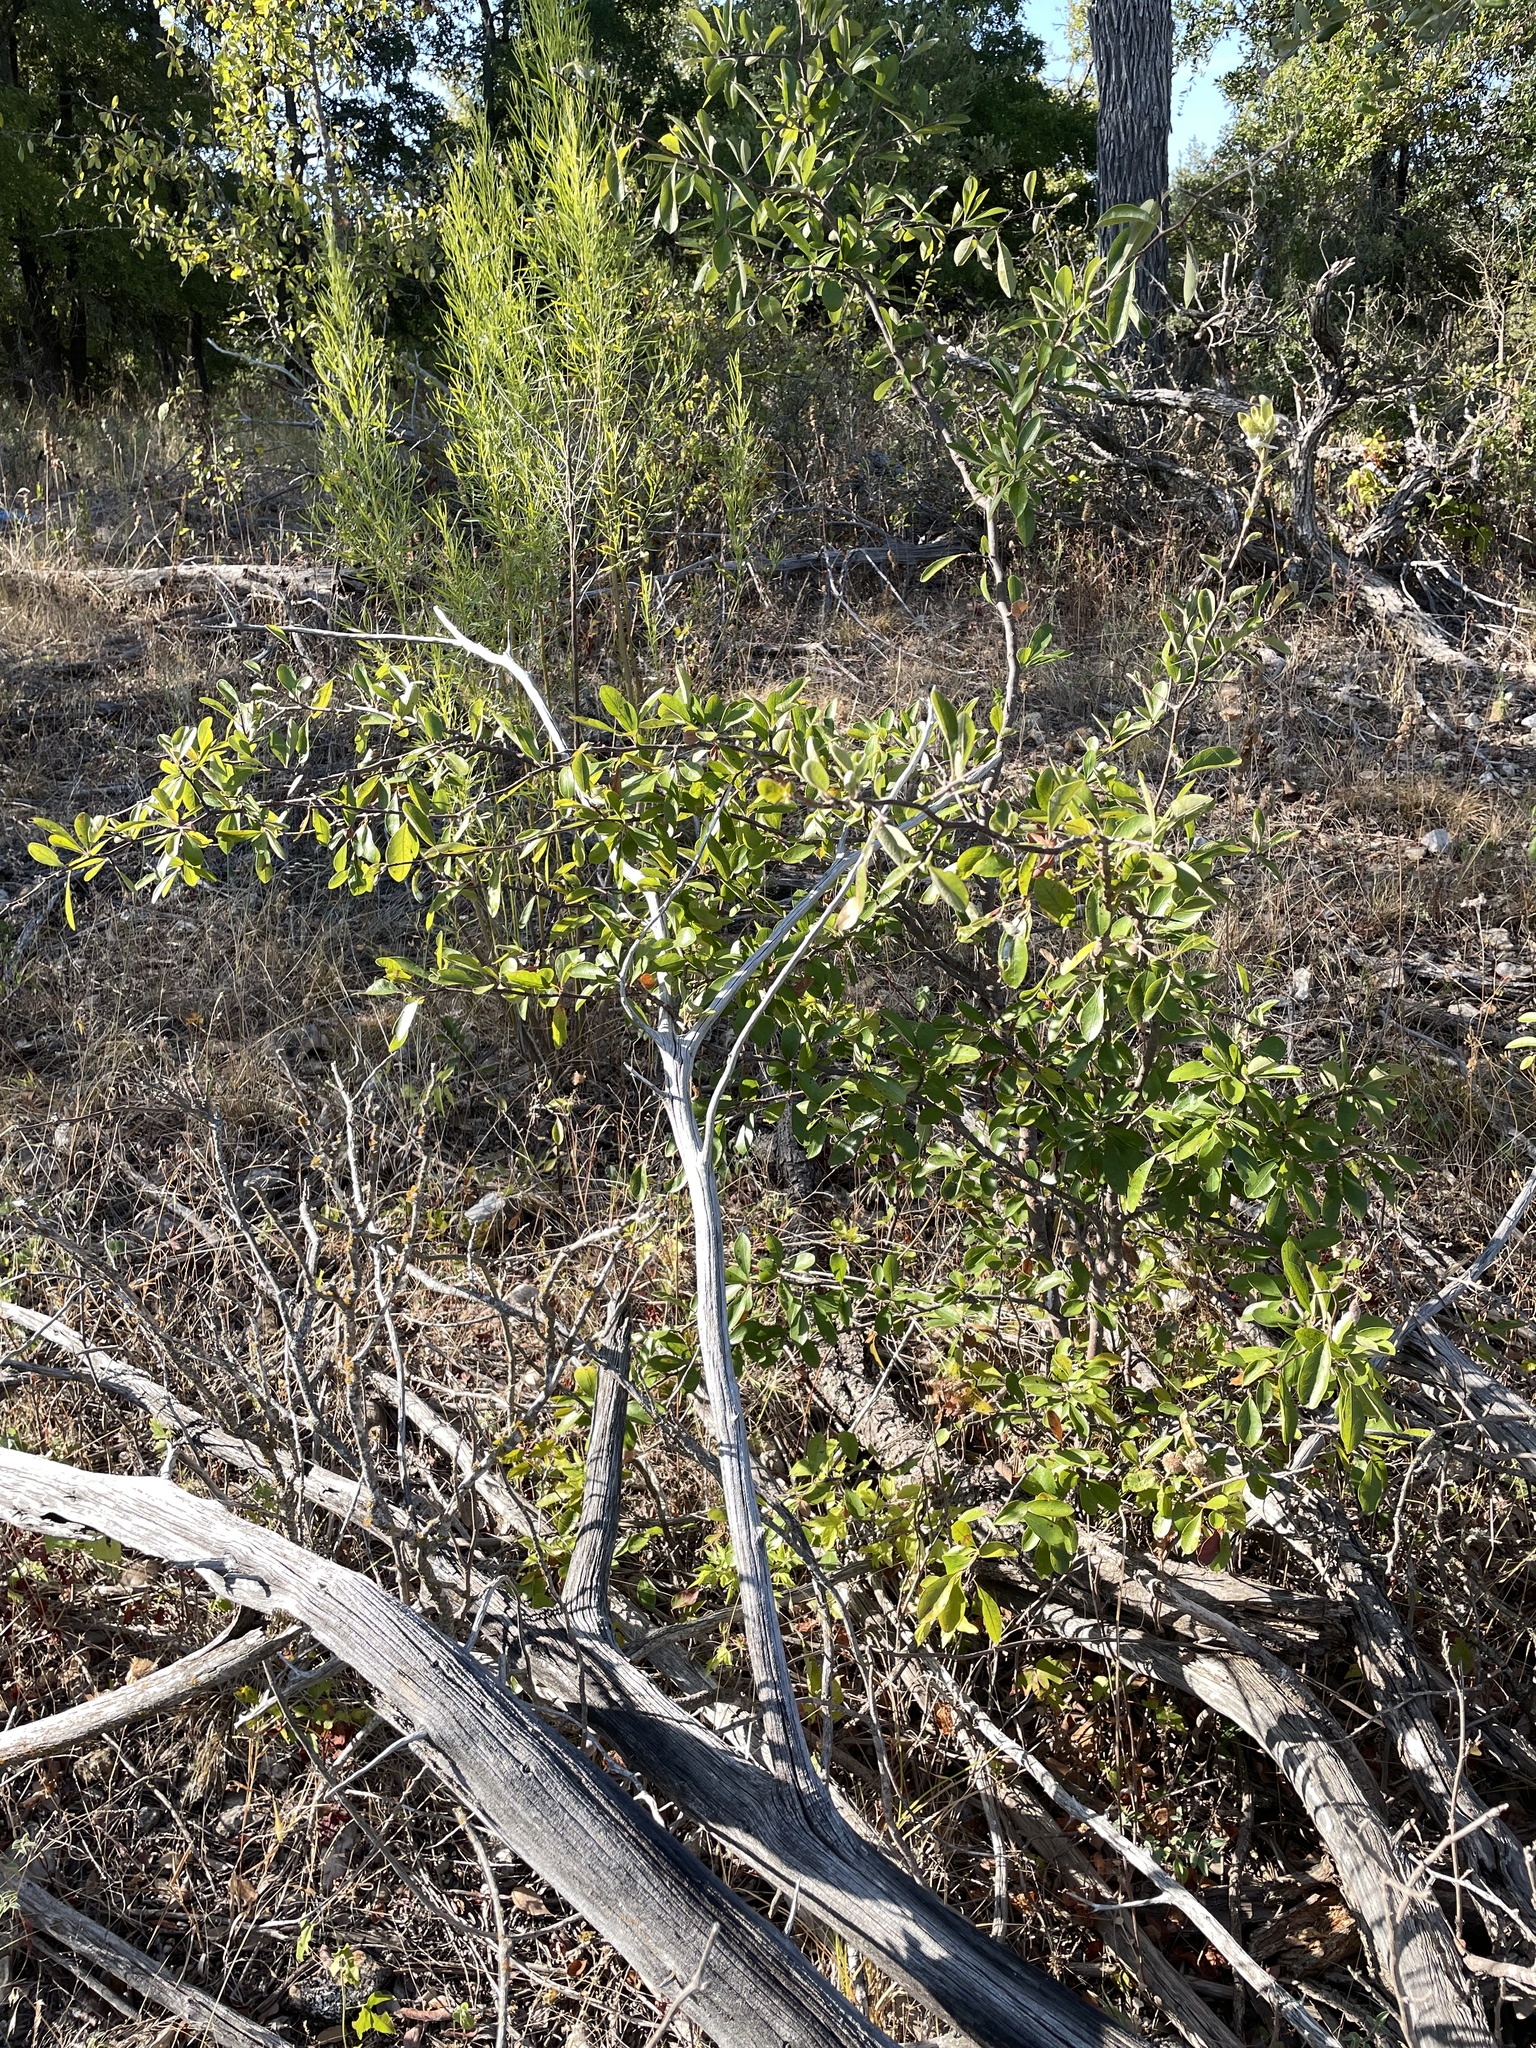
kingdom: Plantae
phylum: Tracheophyta
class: Magnoliopsida
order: Ericales
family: Sapotaceae
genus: Sideroxylon
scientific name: Sideroxylon lanuginosum
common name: Chittamwood
